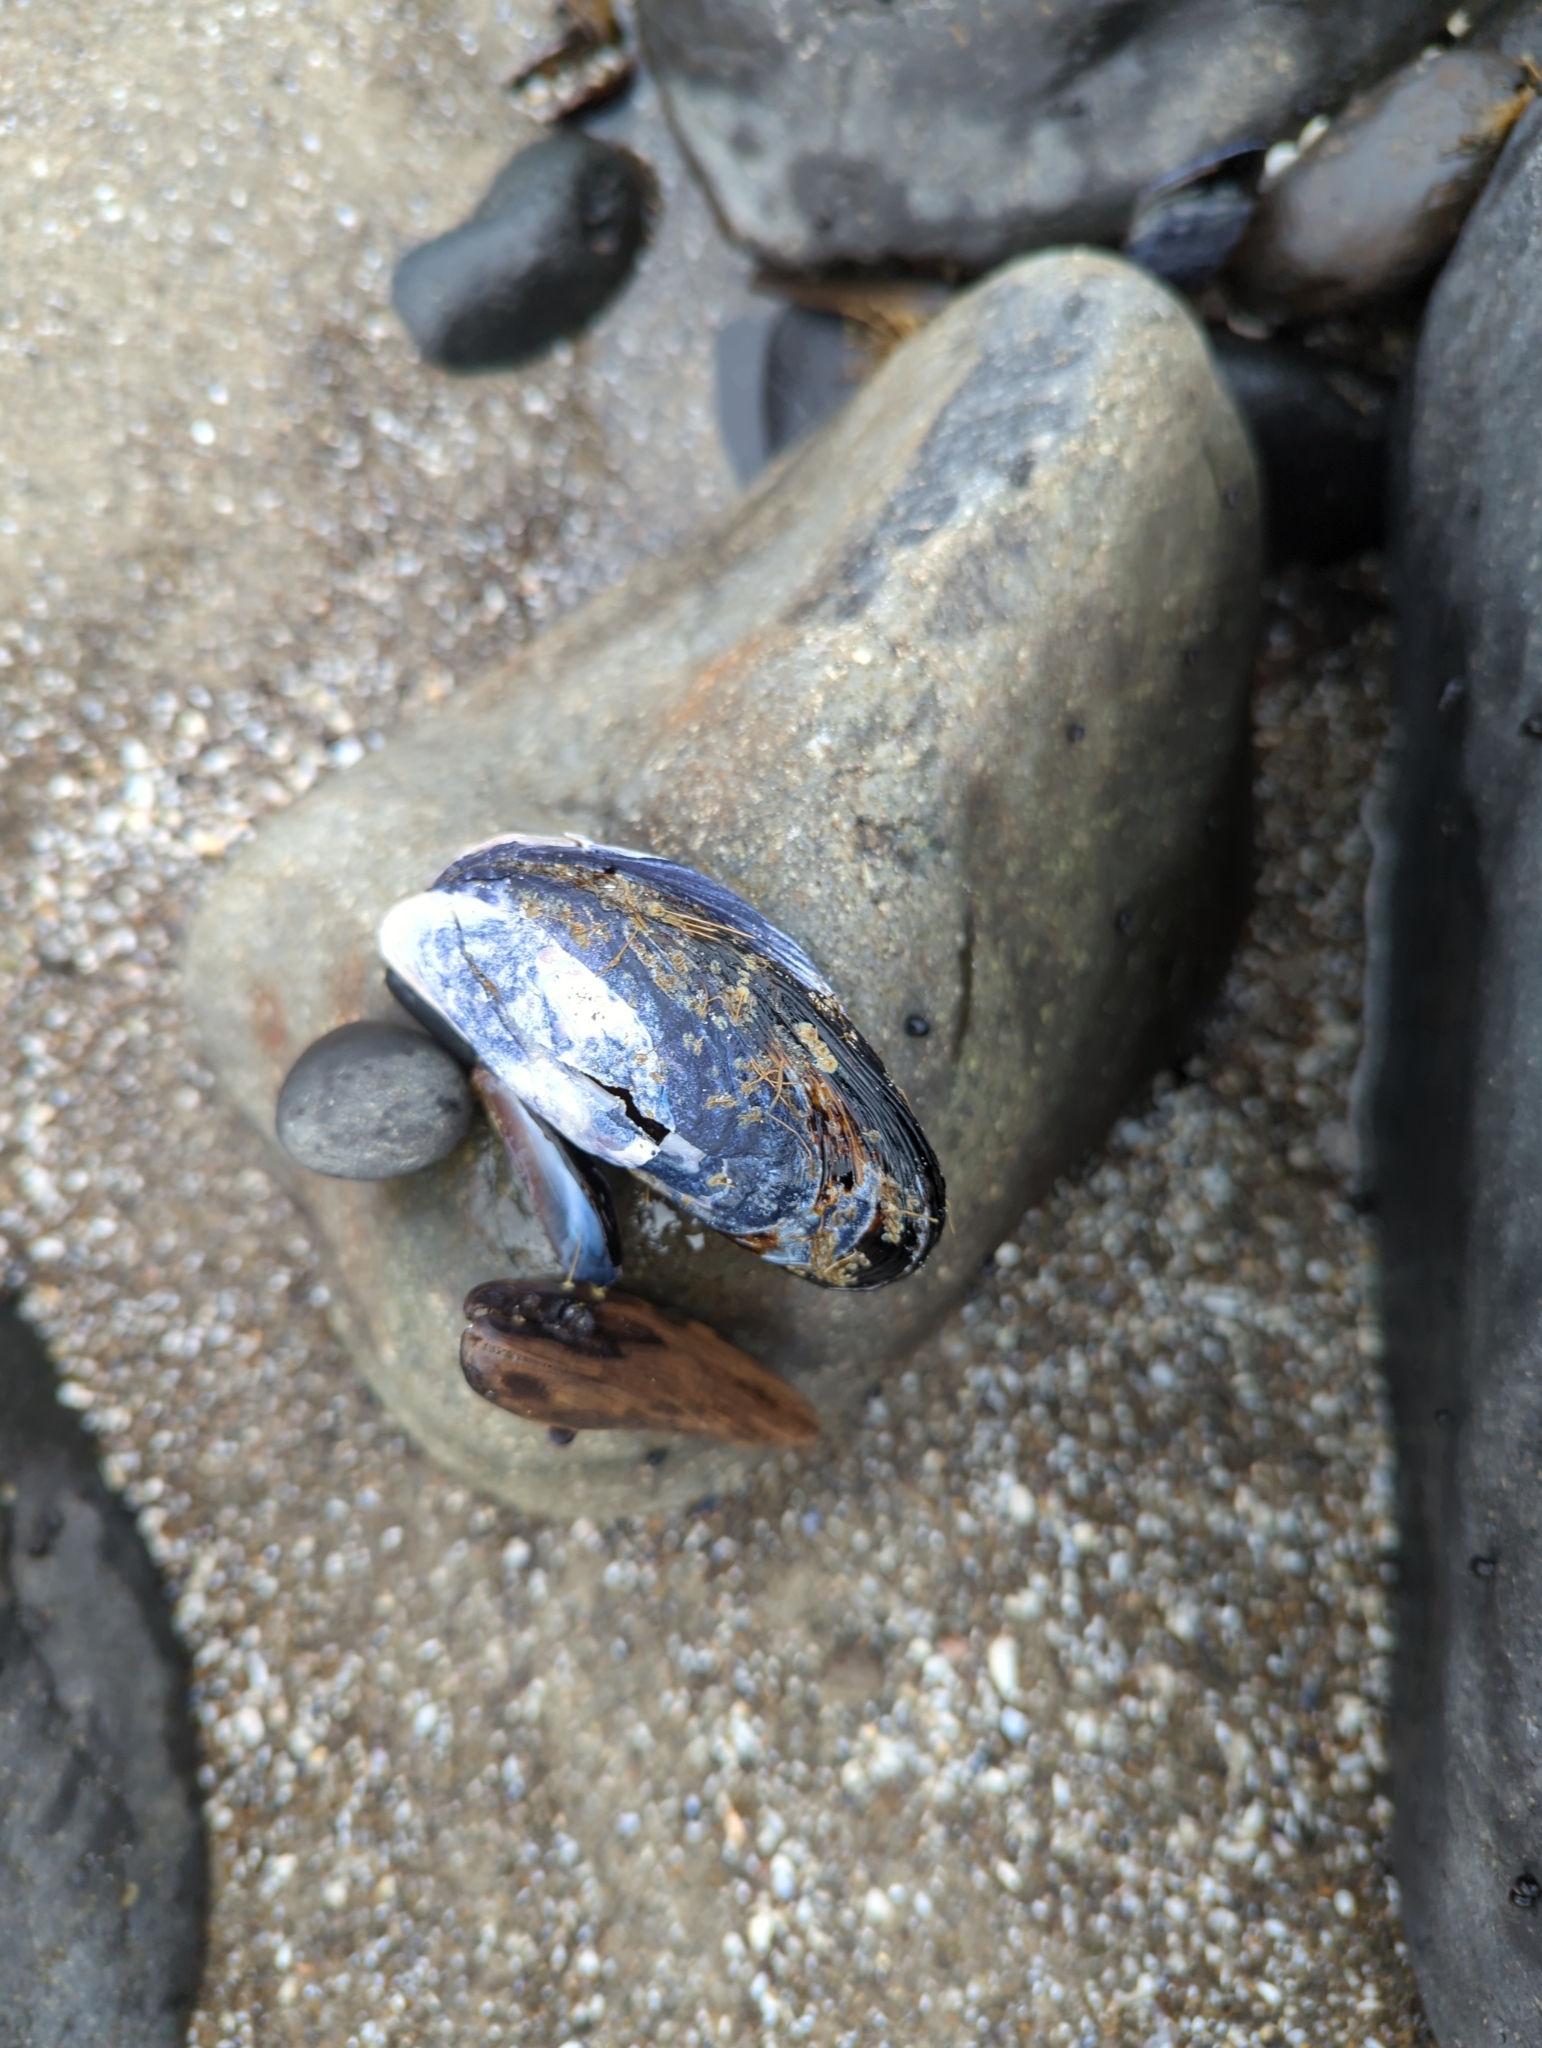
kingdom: Animalia
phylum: Mollusca
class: Bivalvia
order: Mytilida
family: Mytilidae
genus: Mytilus
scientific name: Mytilus californianus
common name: California mussel
